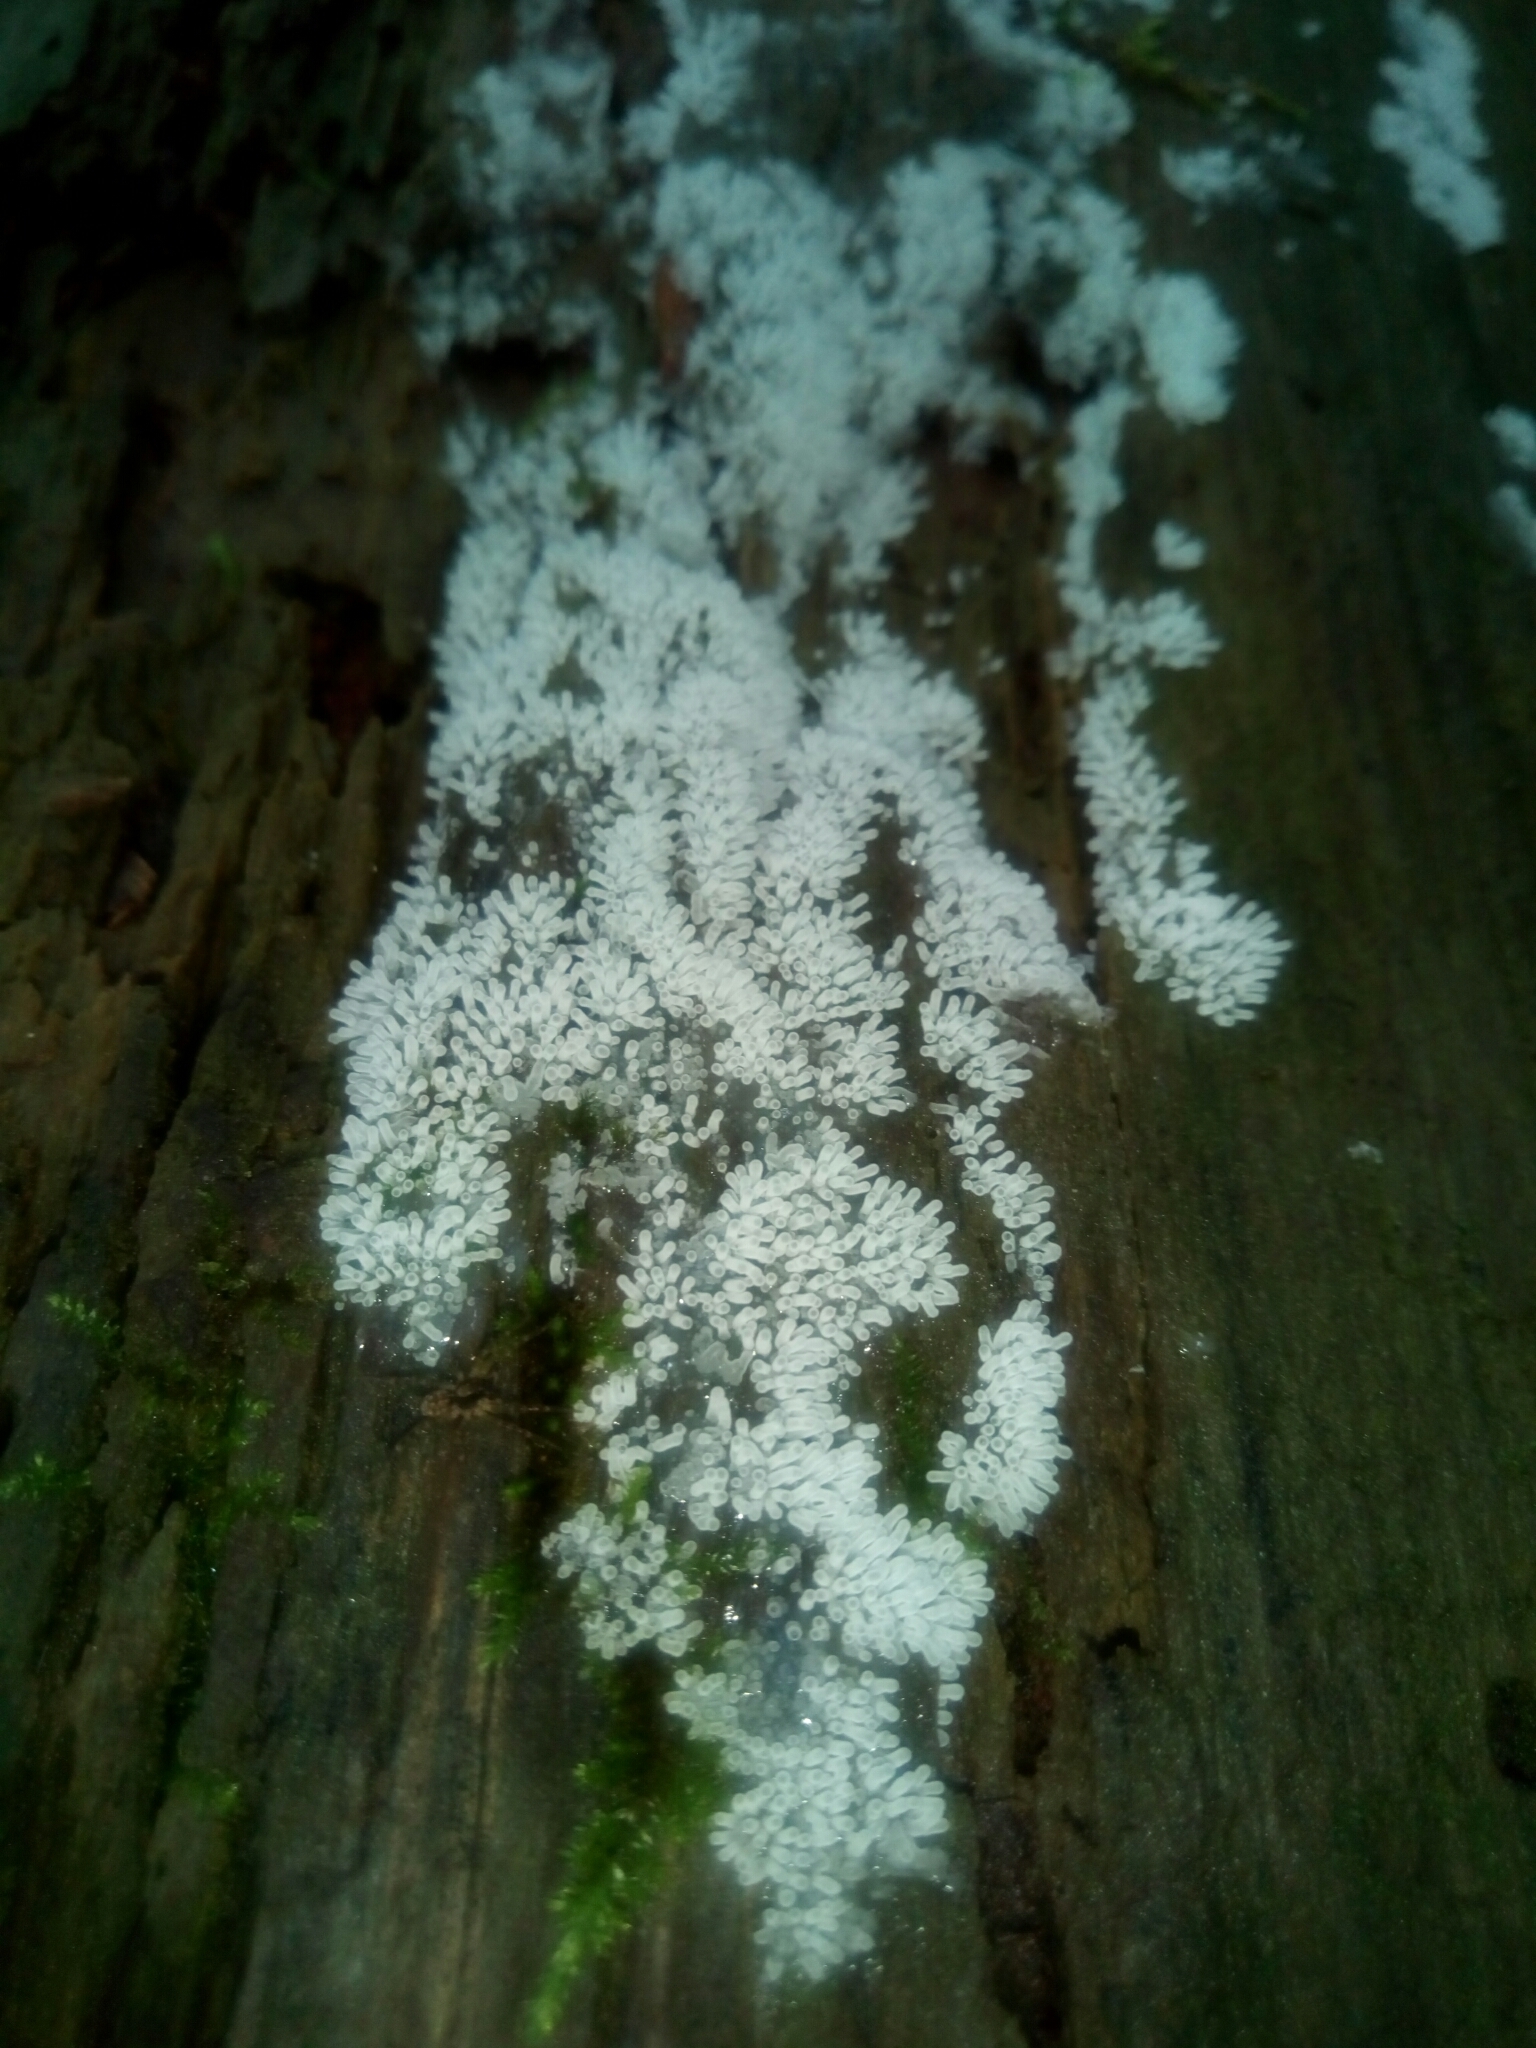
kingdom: Protozoa
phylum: Mycetozoa
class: Protosteliomycetes
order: Ceratiomyxales
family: Ceratiomyxaceae
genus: Ceratiomyxa
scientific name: Ceratiomyxa fruticulosa
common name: Honeycomb coral slime mold
